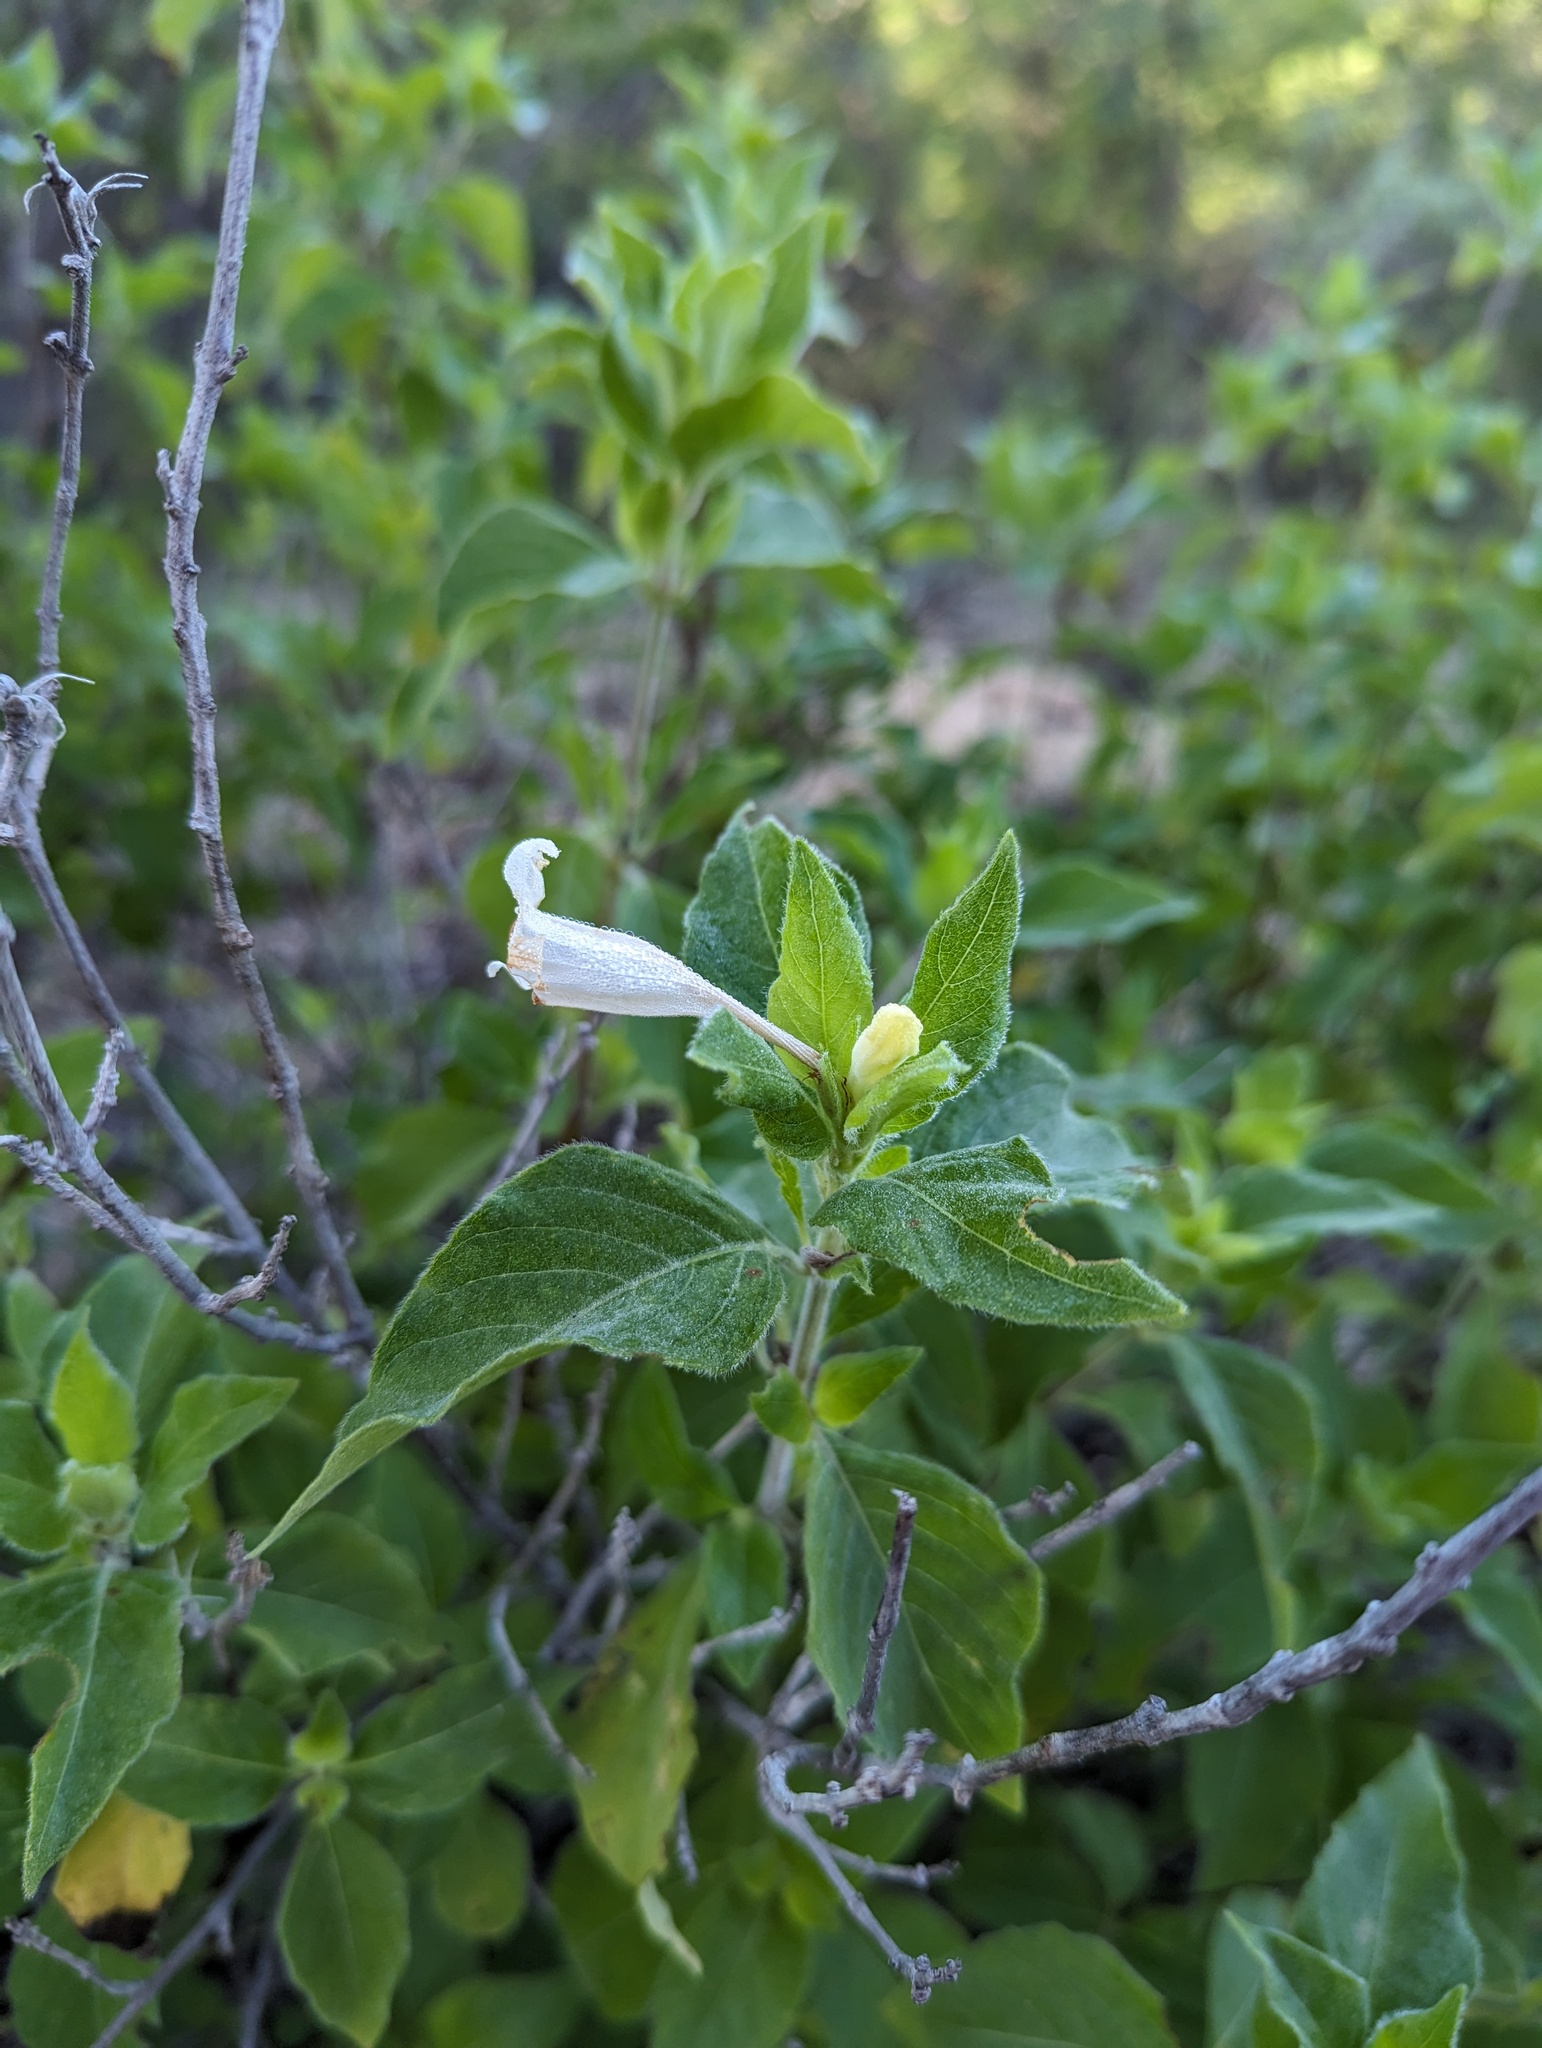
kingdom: Plantae
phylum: Tracheophyta
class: Magnoliopsida
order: Lamiales
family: Acanthaceae
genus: Ruellia
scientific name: Ruellia leucantha
